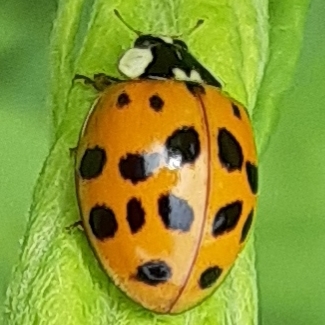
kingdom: Animalia
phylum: Arthropoda
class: Insecta
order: Coleoptera
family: Coccinellidae
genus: Harmonia
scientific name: Harmonia axyridis
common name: Harlequin ladybird
